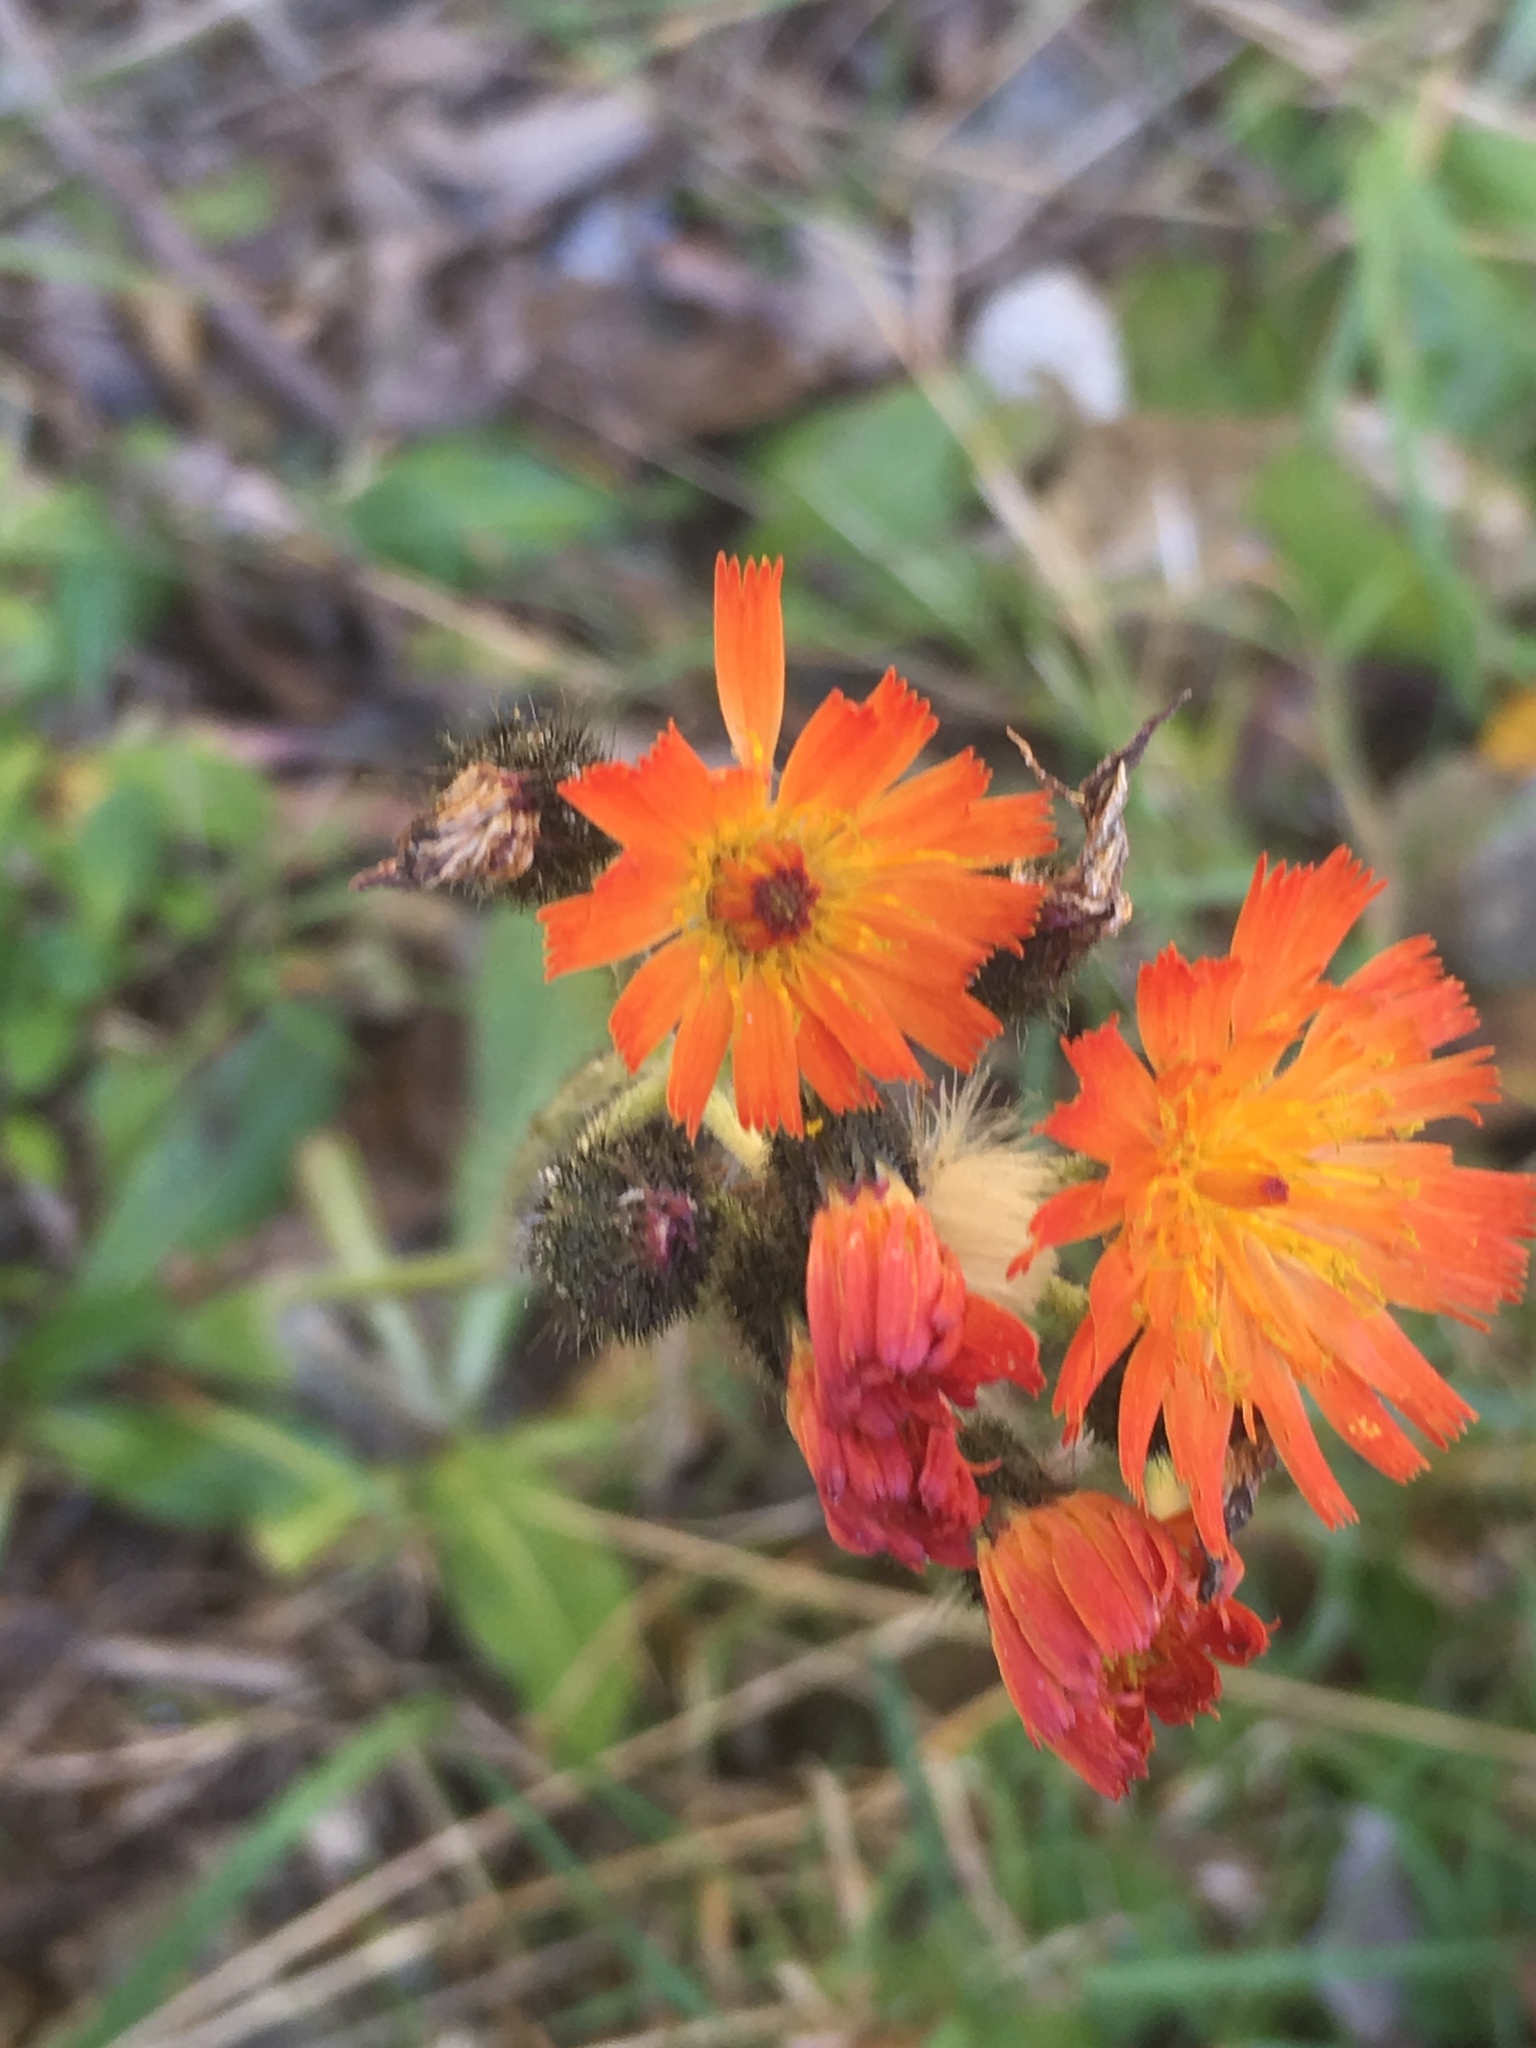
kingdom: Plantae
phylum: Tracheophyta
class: Magnoliopsida
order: Asterales
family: Asteraceae
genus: Pilosella
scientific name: Pilosella aurantiaca
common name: Fox-and-cubs
